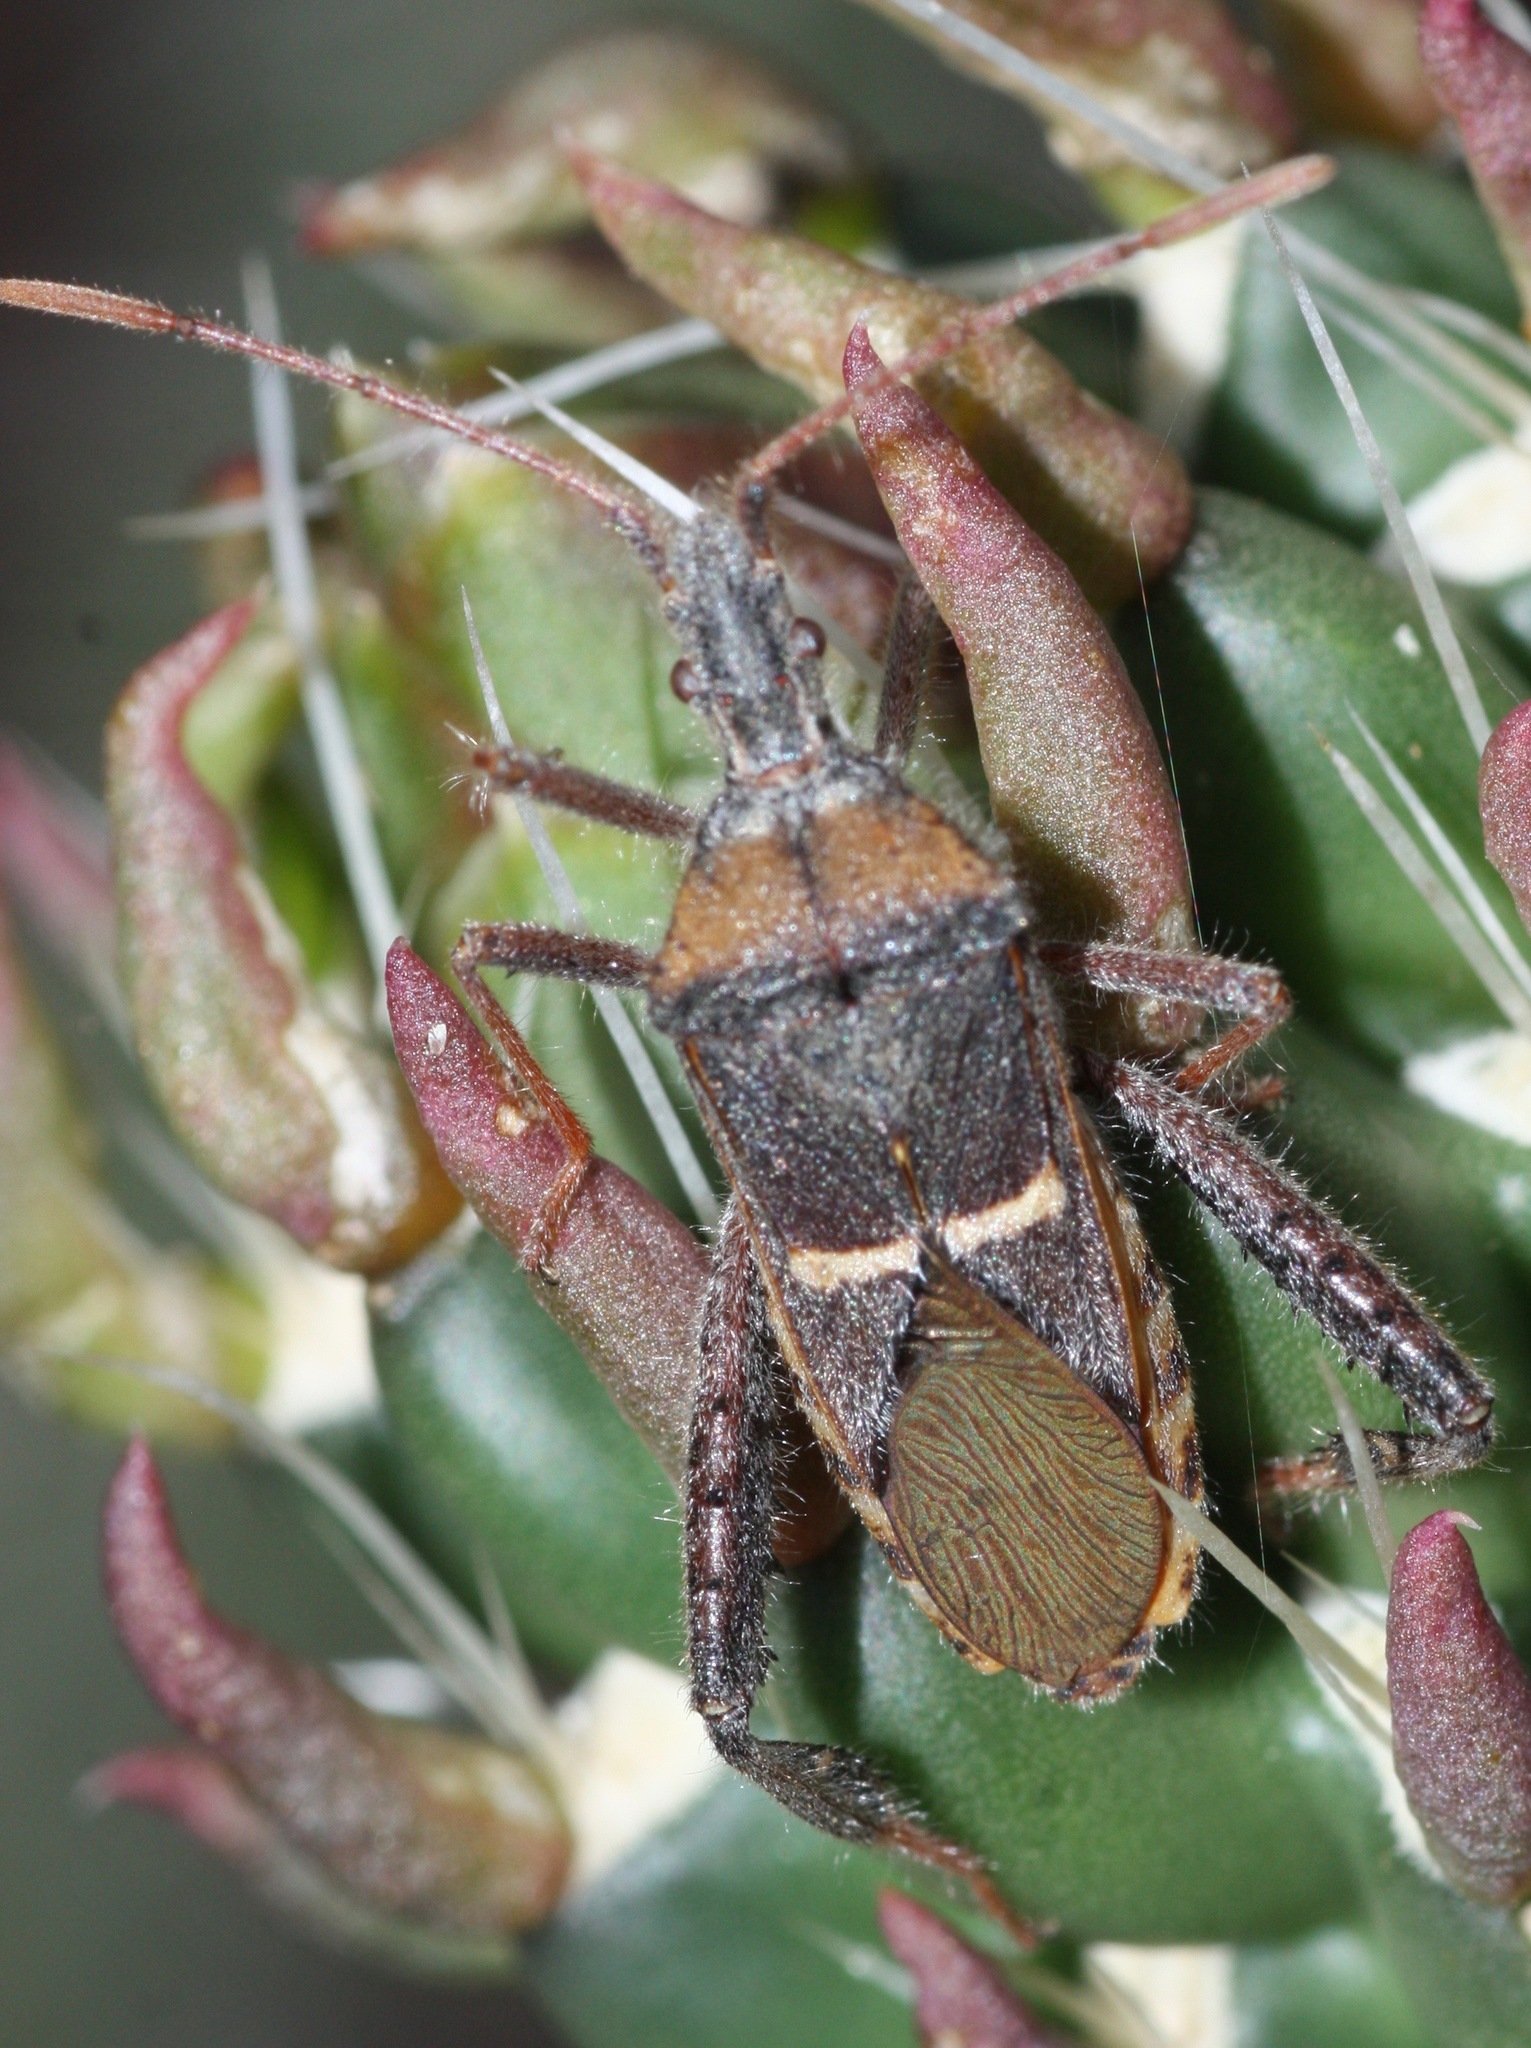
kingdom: Animalia
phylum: Arthropoda
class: Insecta
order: Hemiptera
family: Coreidae
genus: Narnia
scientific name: Narnia snowi
